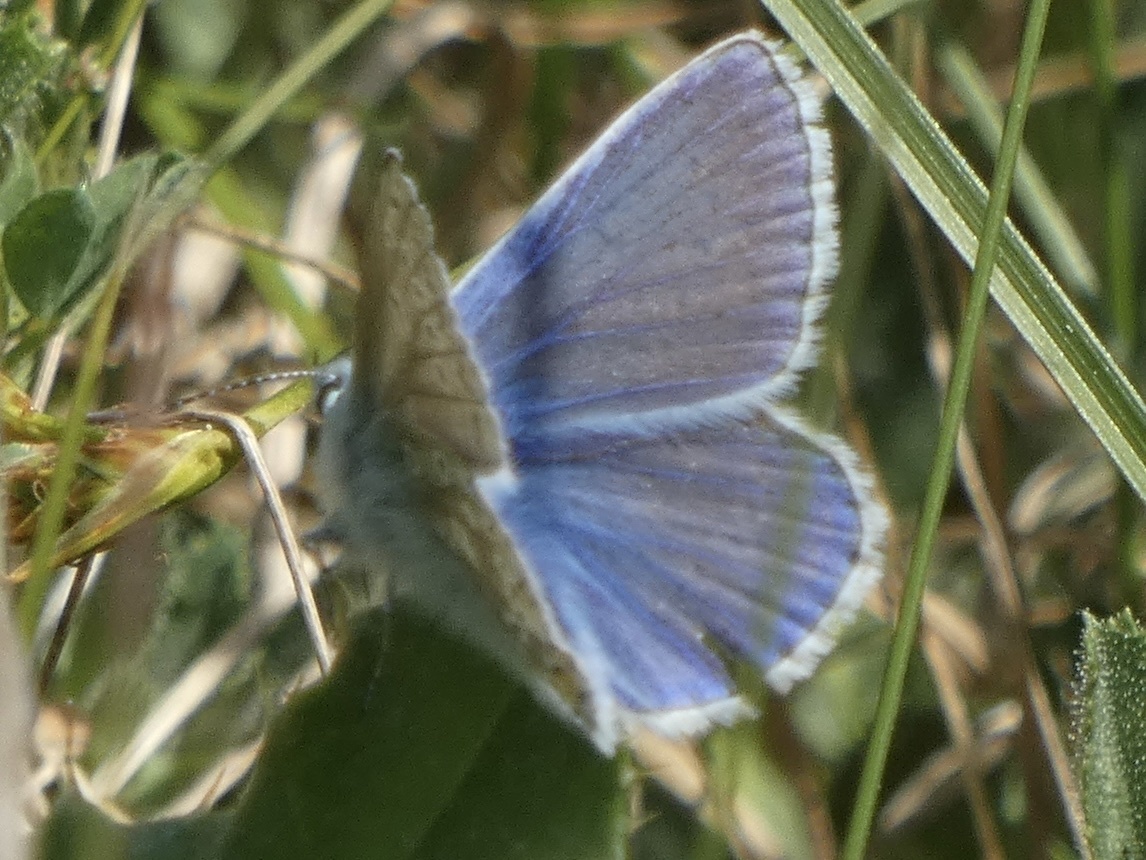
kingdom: Animalia
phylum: Arthropoda
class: Insecta
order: Lepidoptera
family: Lycaenidae
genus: Polyommatus
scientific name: Polyommatus icarus
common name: Common blue
